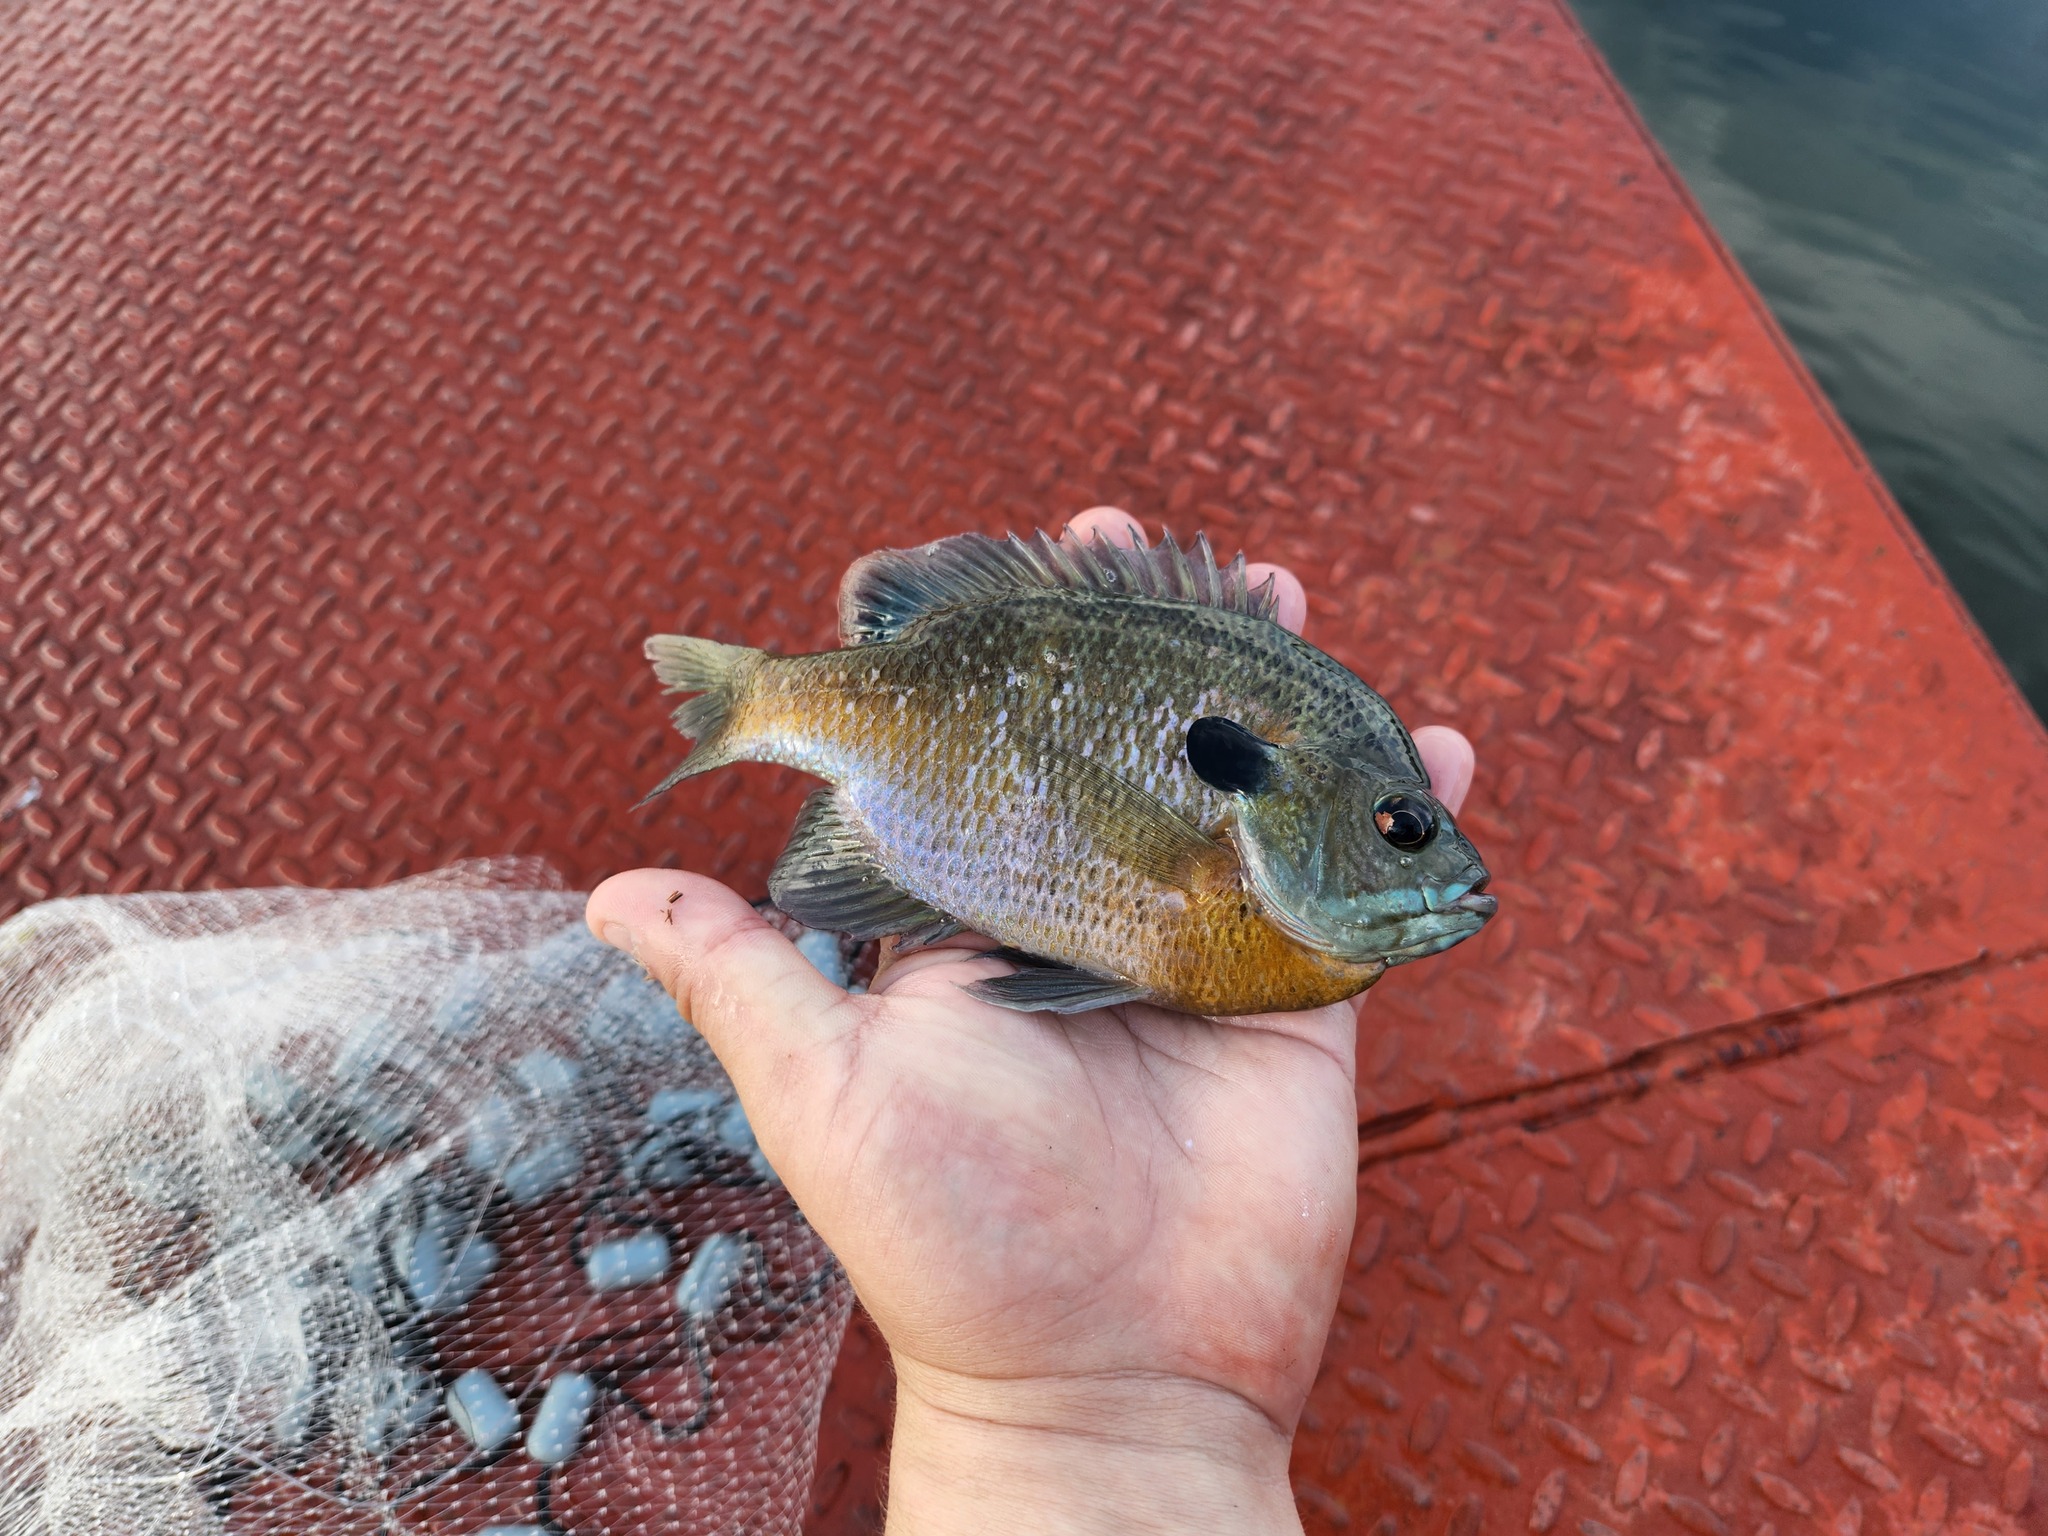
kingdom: Animalia
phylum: Chordata
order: Perciformes
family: Centrarchidae
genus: Lepomis
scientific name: Lepomis macrochirus
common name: Bluegill
